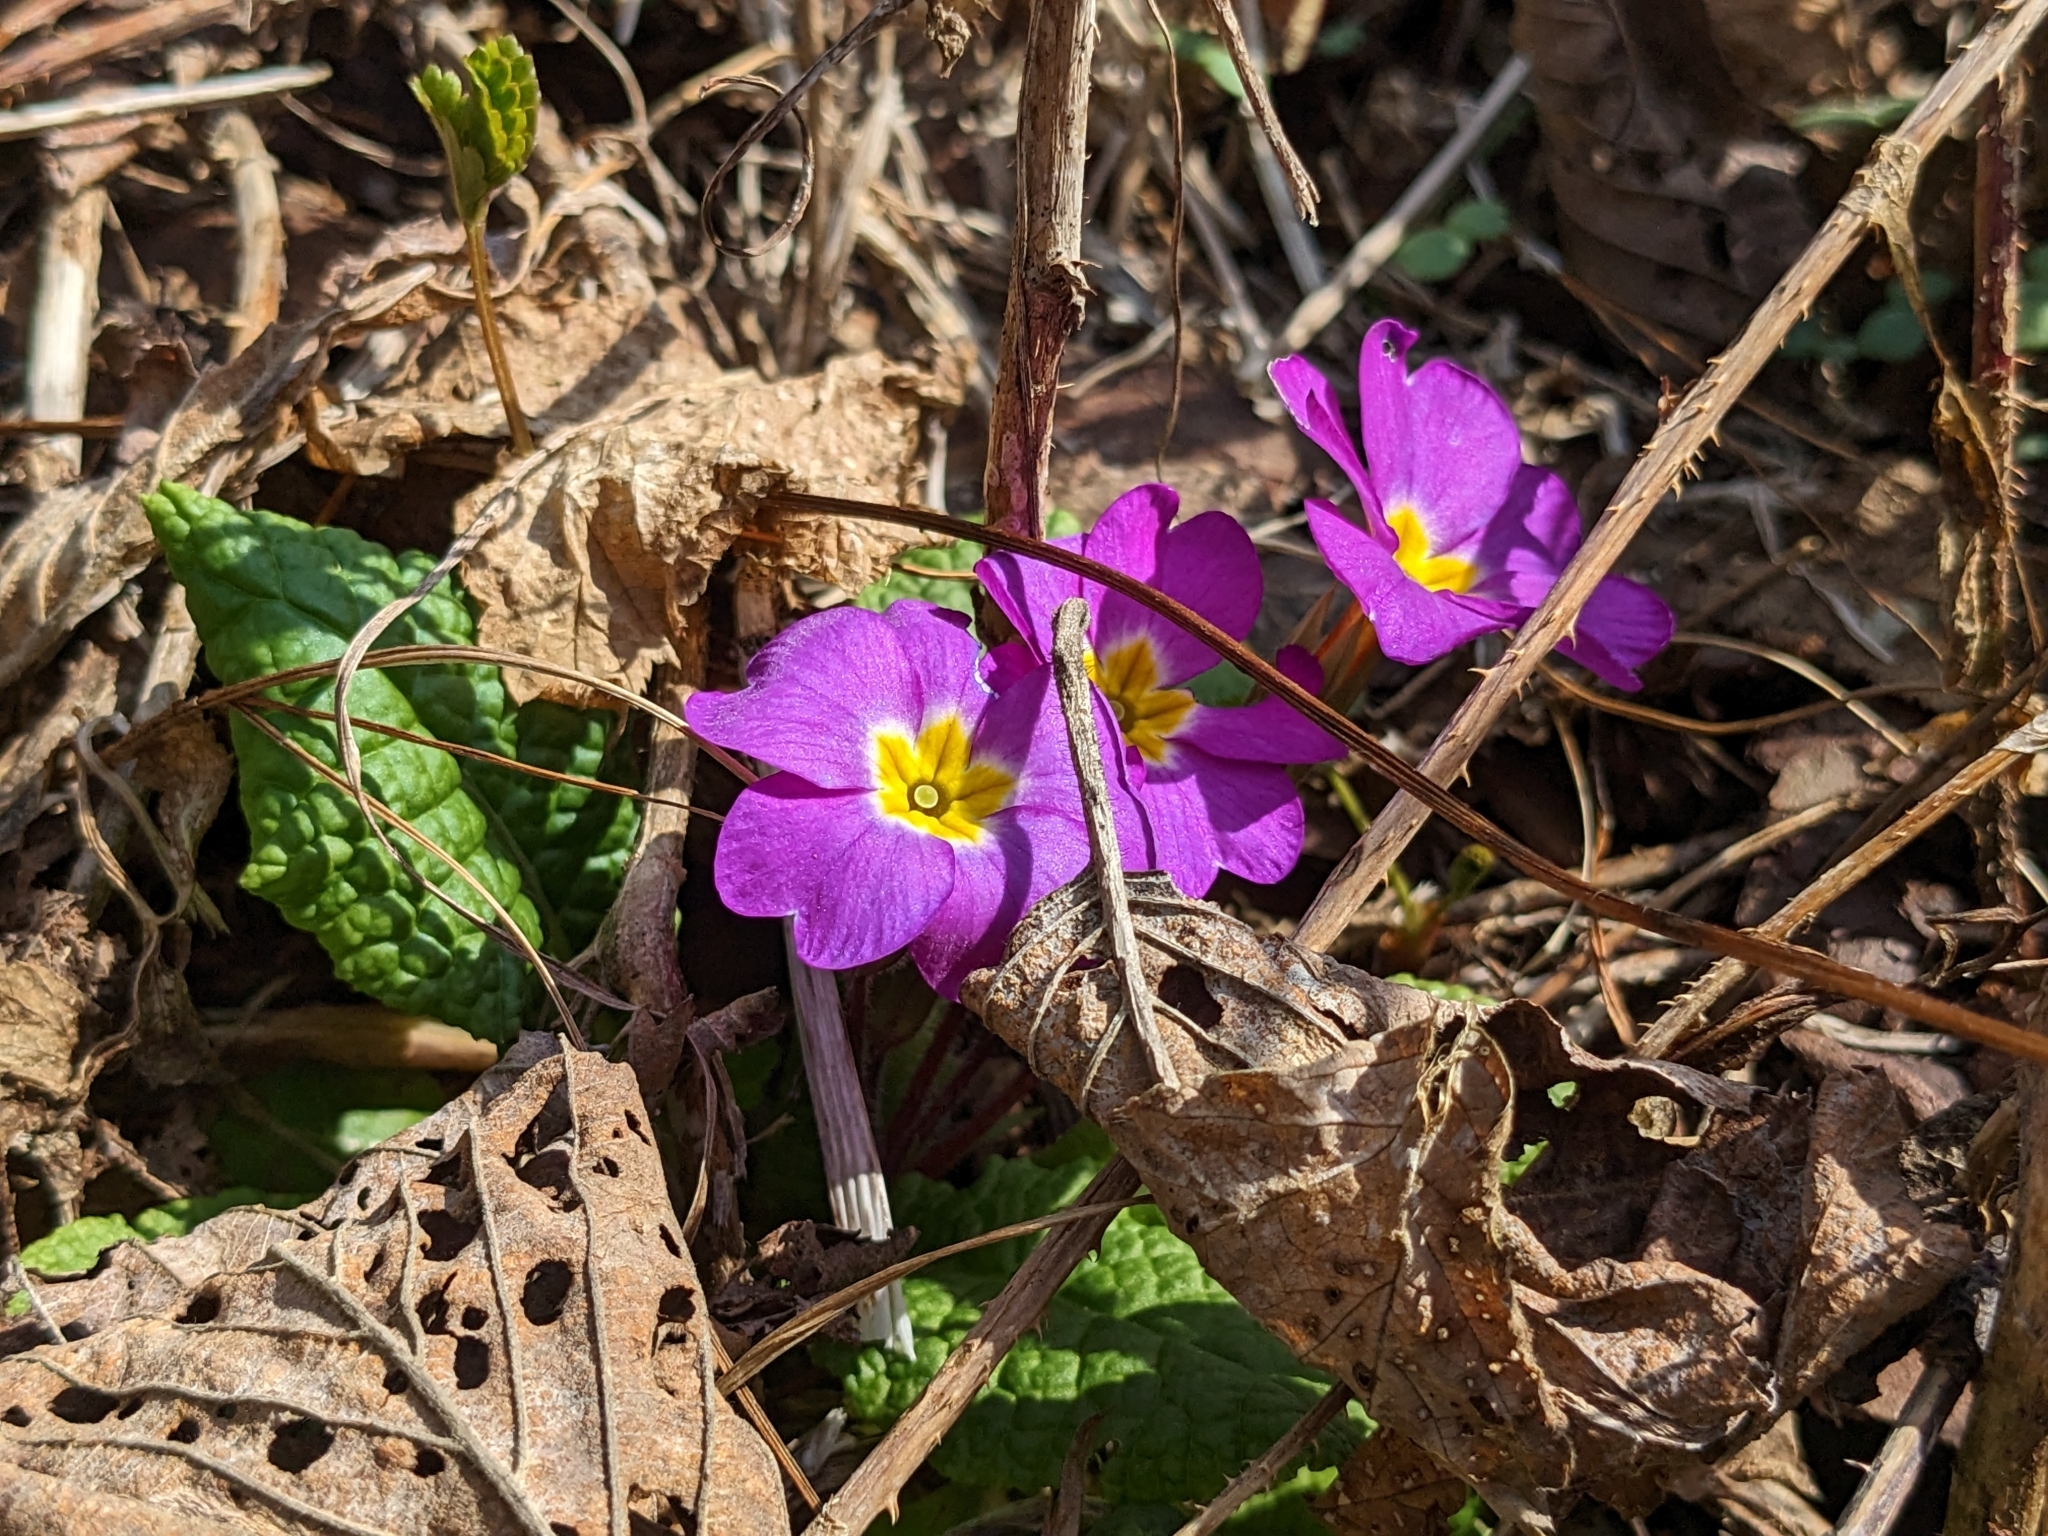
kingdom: Plantae
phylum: Tracheophyta
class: Magnoliopsida
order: Ericales
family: Primulaceae
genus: Primula
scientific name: Primula vulgaris
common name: Primrose
